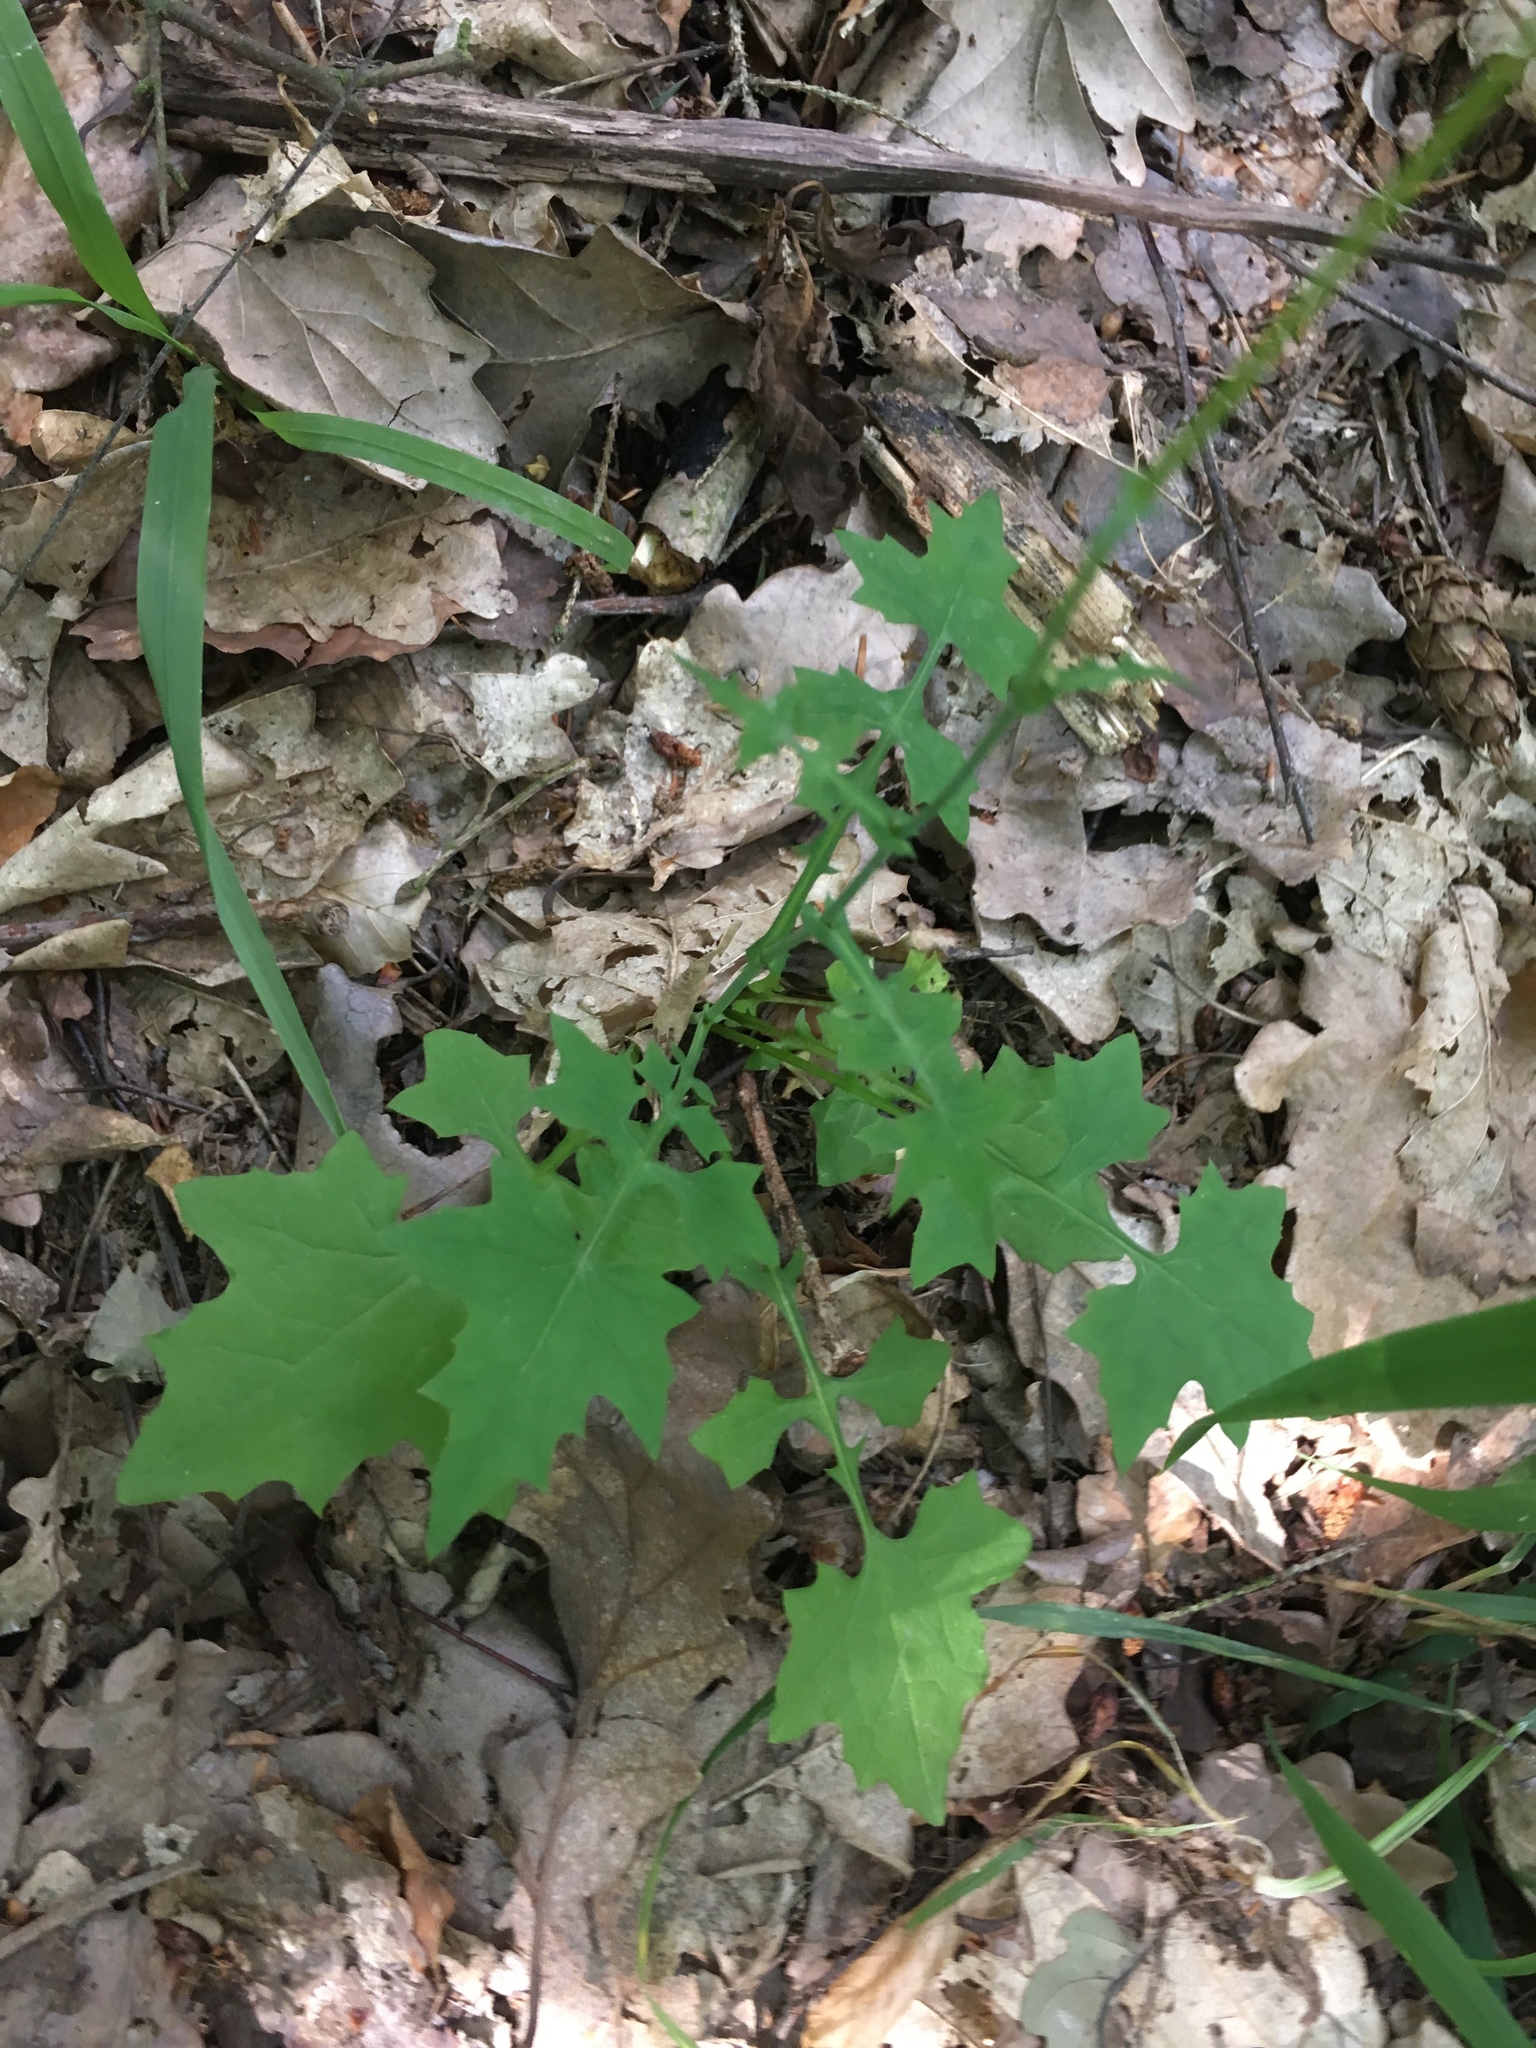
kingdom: Plantae
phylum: Tracheophyta
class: Magnoliopsida
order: Asterales
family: Asteraceae
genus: Mycelis
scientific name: Mycelis muralis
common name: Wall lettuce
